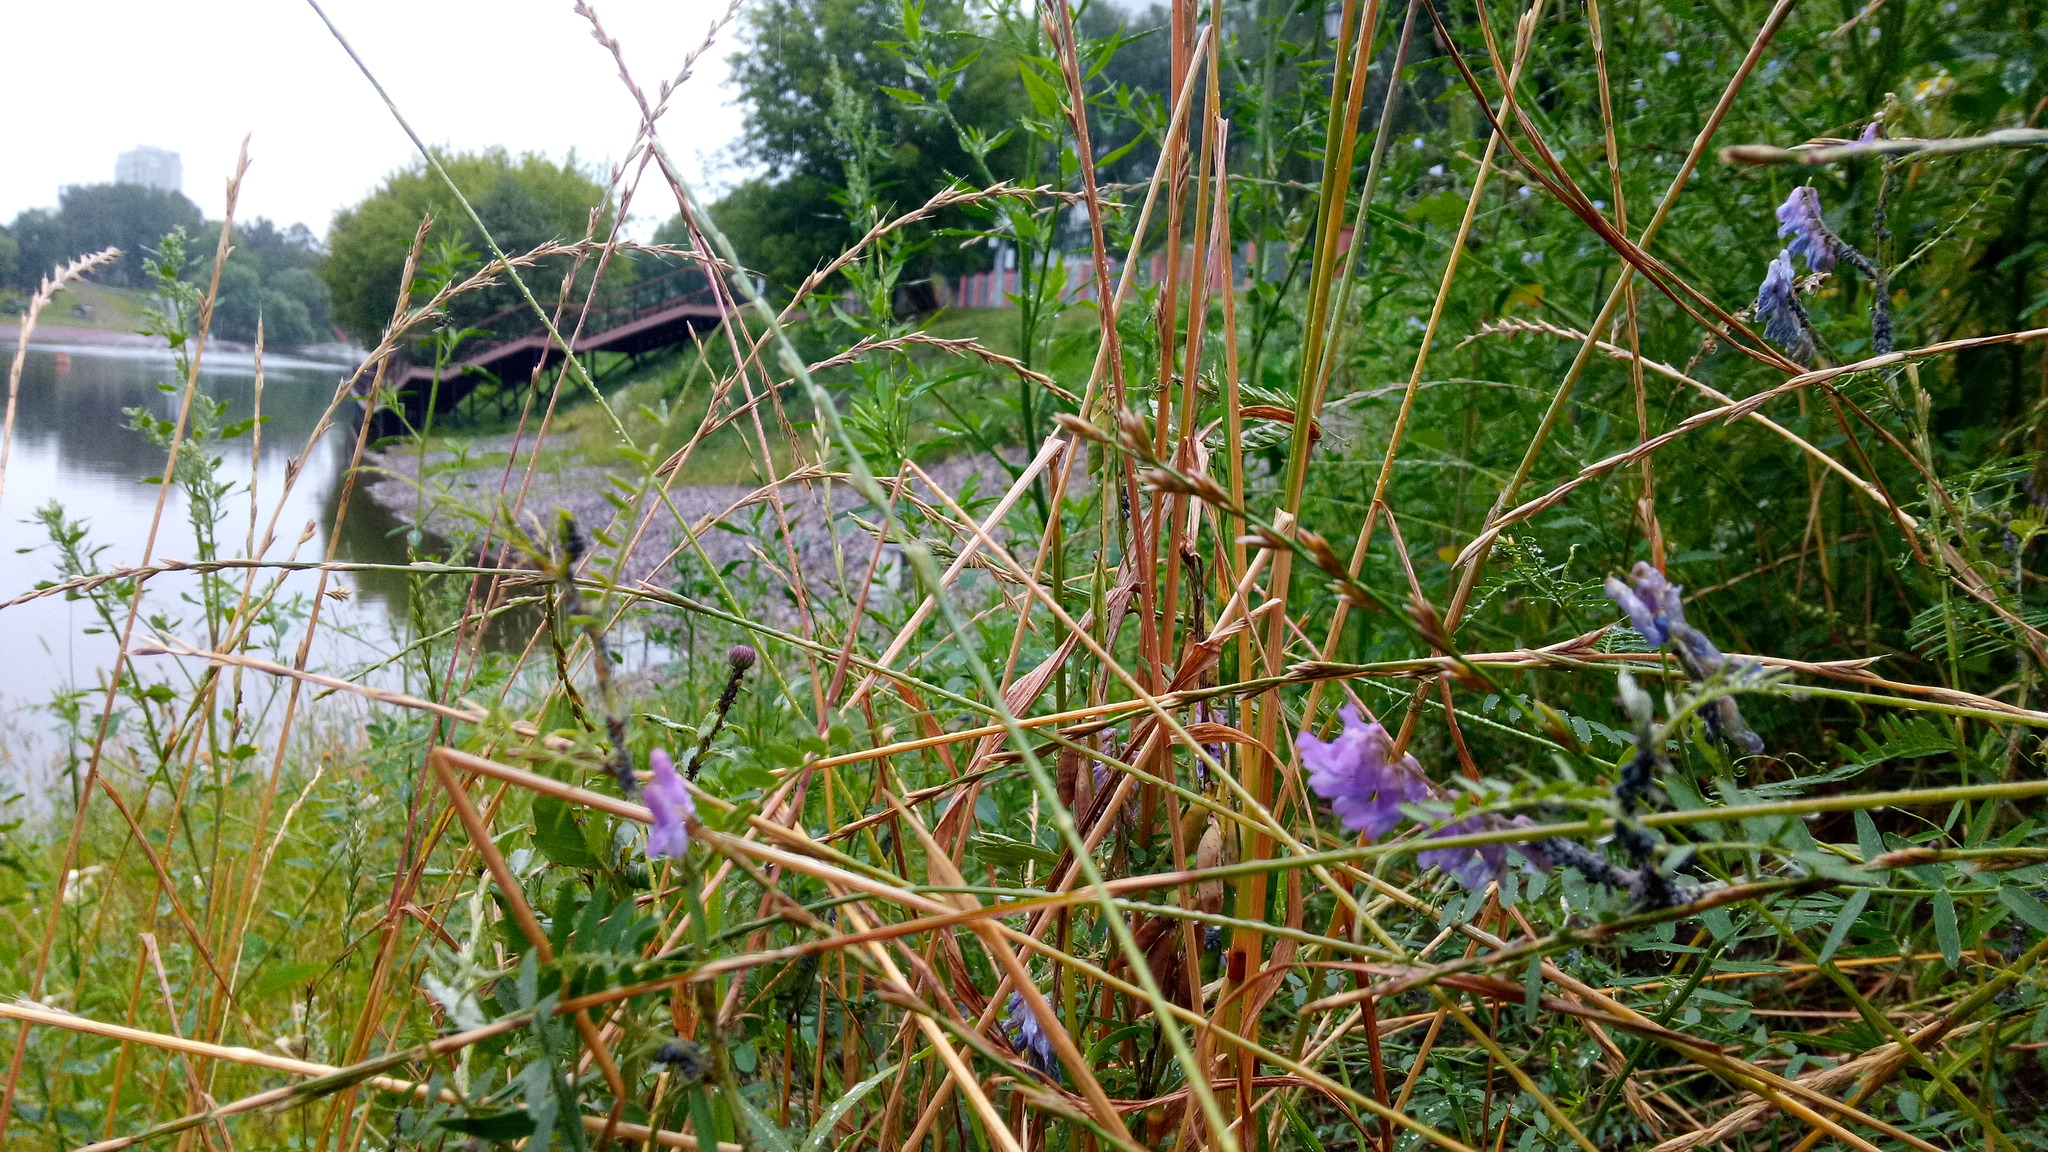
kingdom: Plantae
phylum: Tracheophyta
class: Magnoliopsida
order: Fabales
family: Fabaceae
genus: Vicia
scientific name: Vicia cracca
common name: Bird vetch
